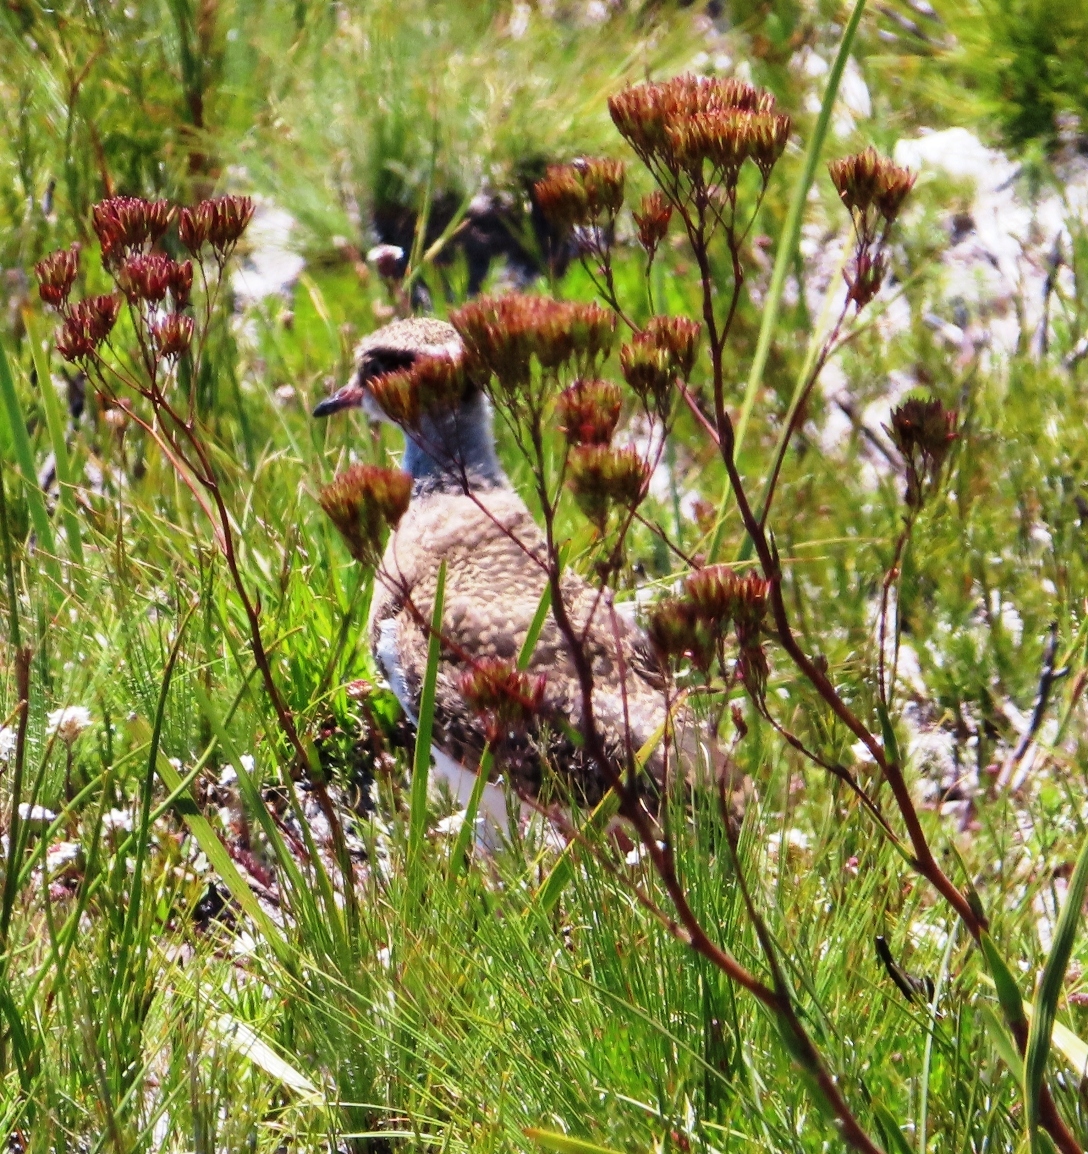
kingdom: Animalia
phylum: Chordata
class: Aves
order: Charadriiformes
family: Charadriidae
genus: Vanellus
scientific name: Vanellus coronatus
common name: Crowned lapwing
